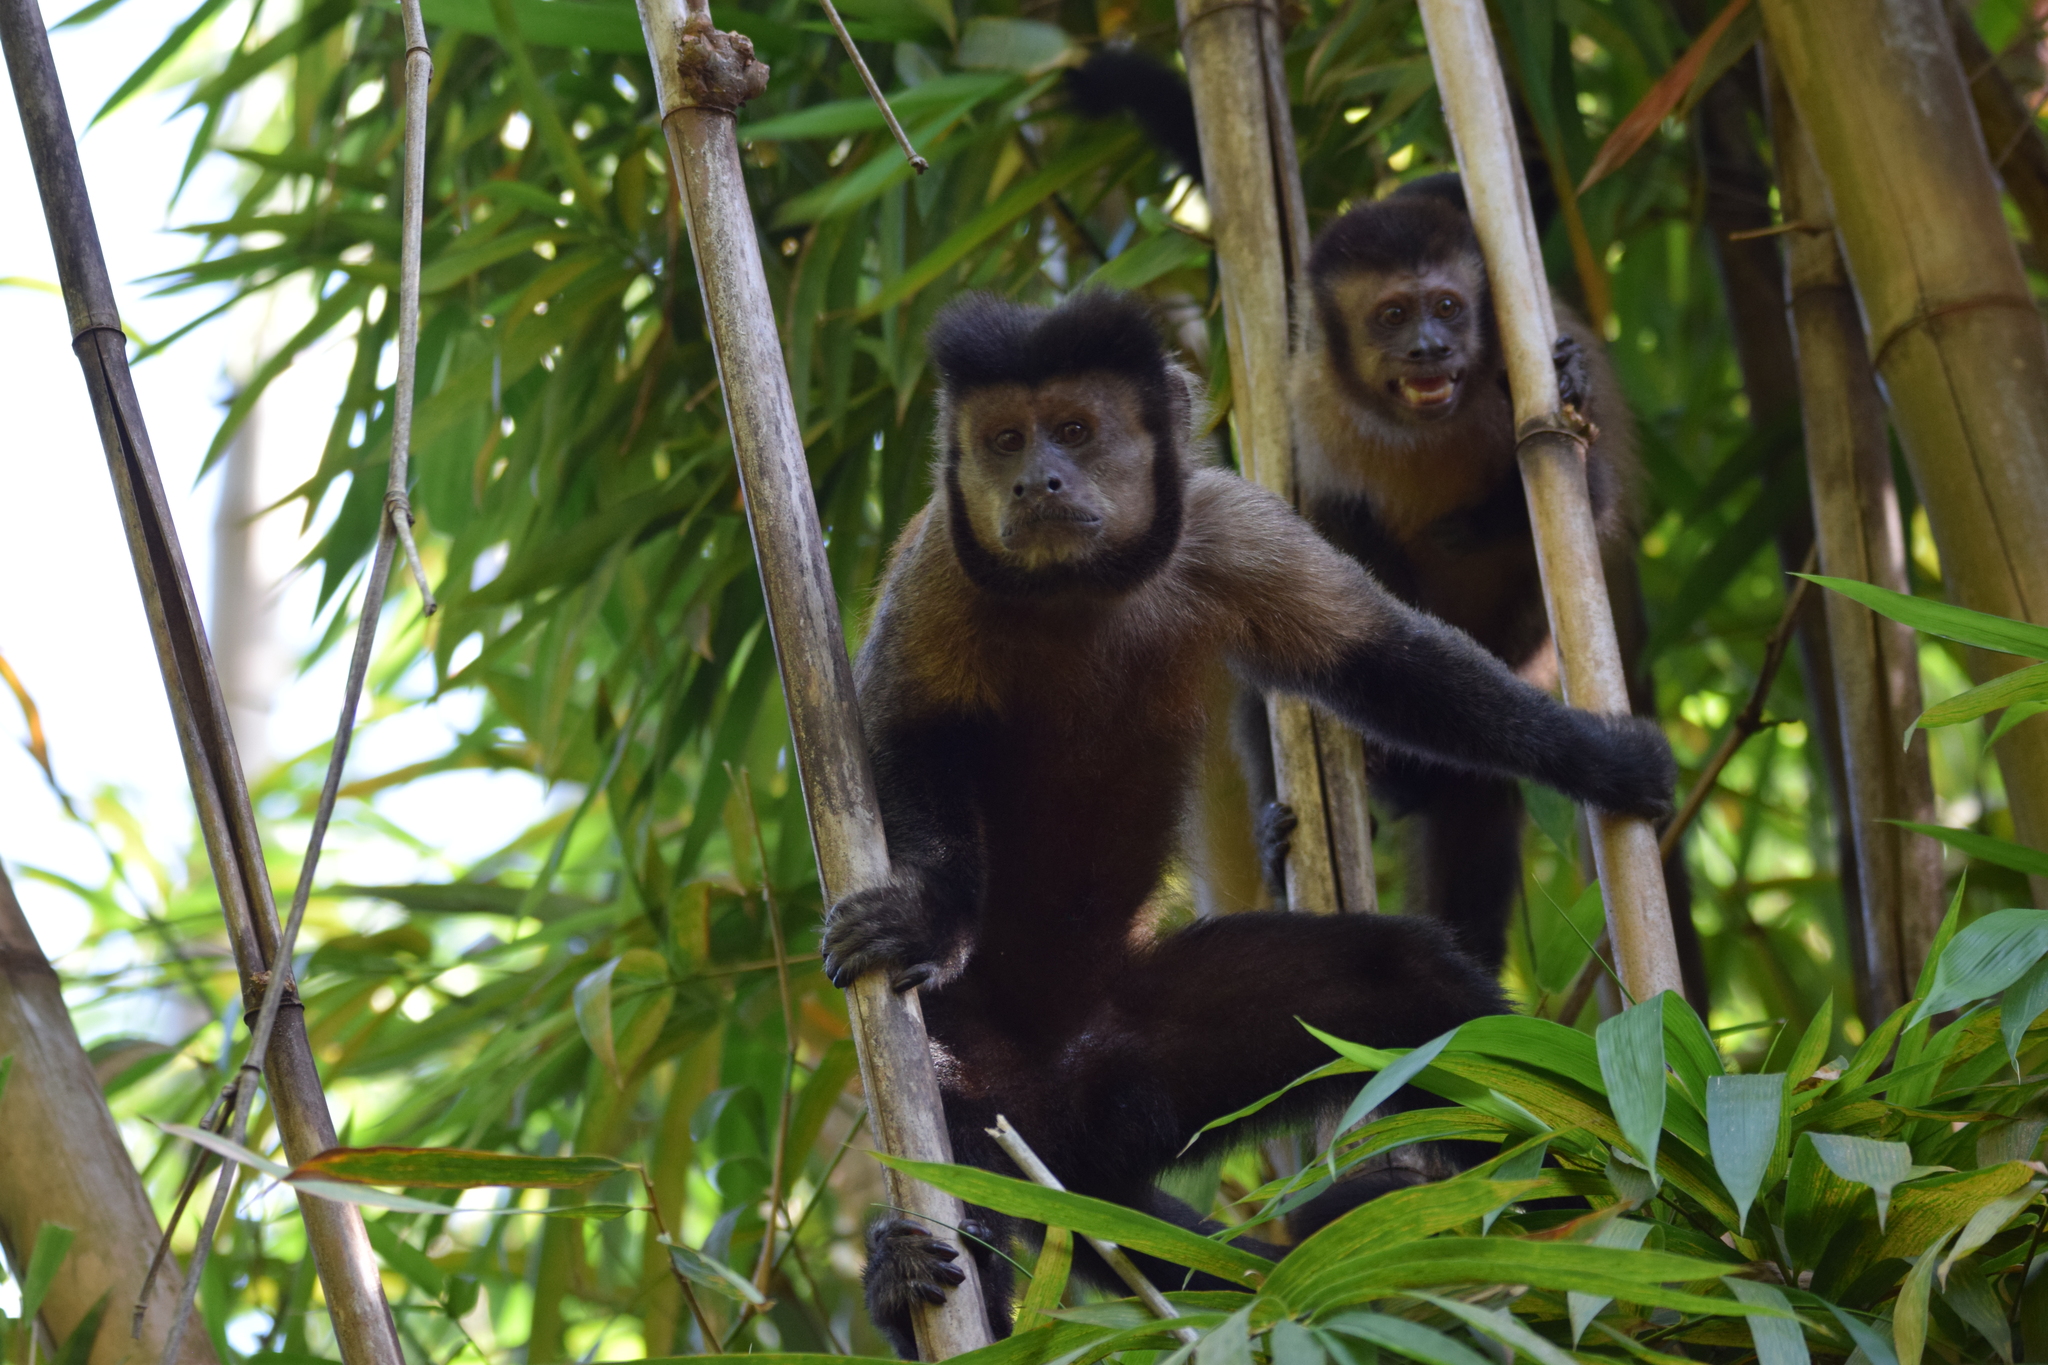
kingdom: Animalia
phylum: Chordata
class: Mammalia
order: Primates
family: Cebidae
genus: Sapajus
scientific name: Sapajus nigritus
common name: Black capuchin
